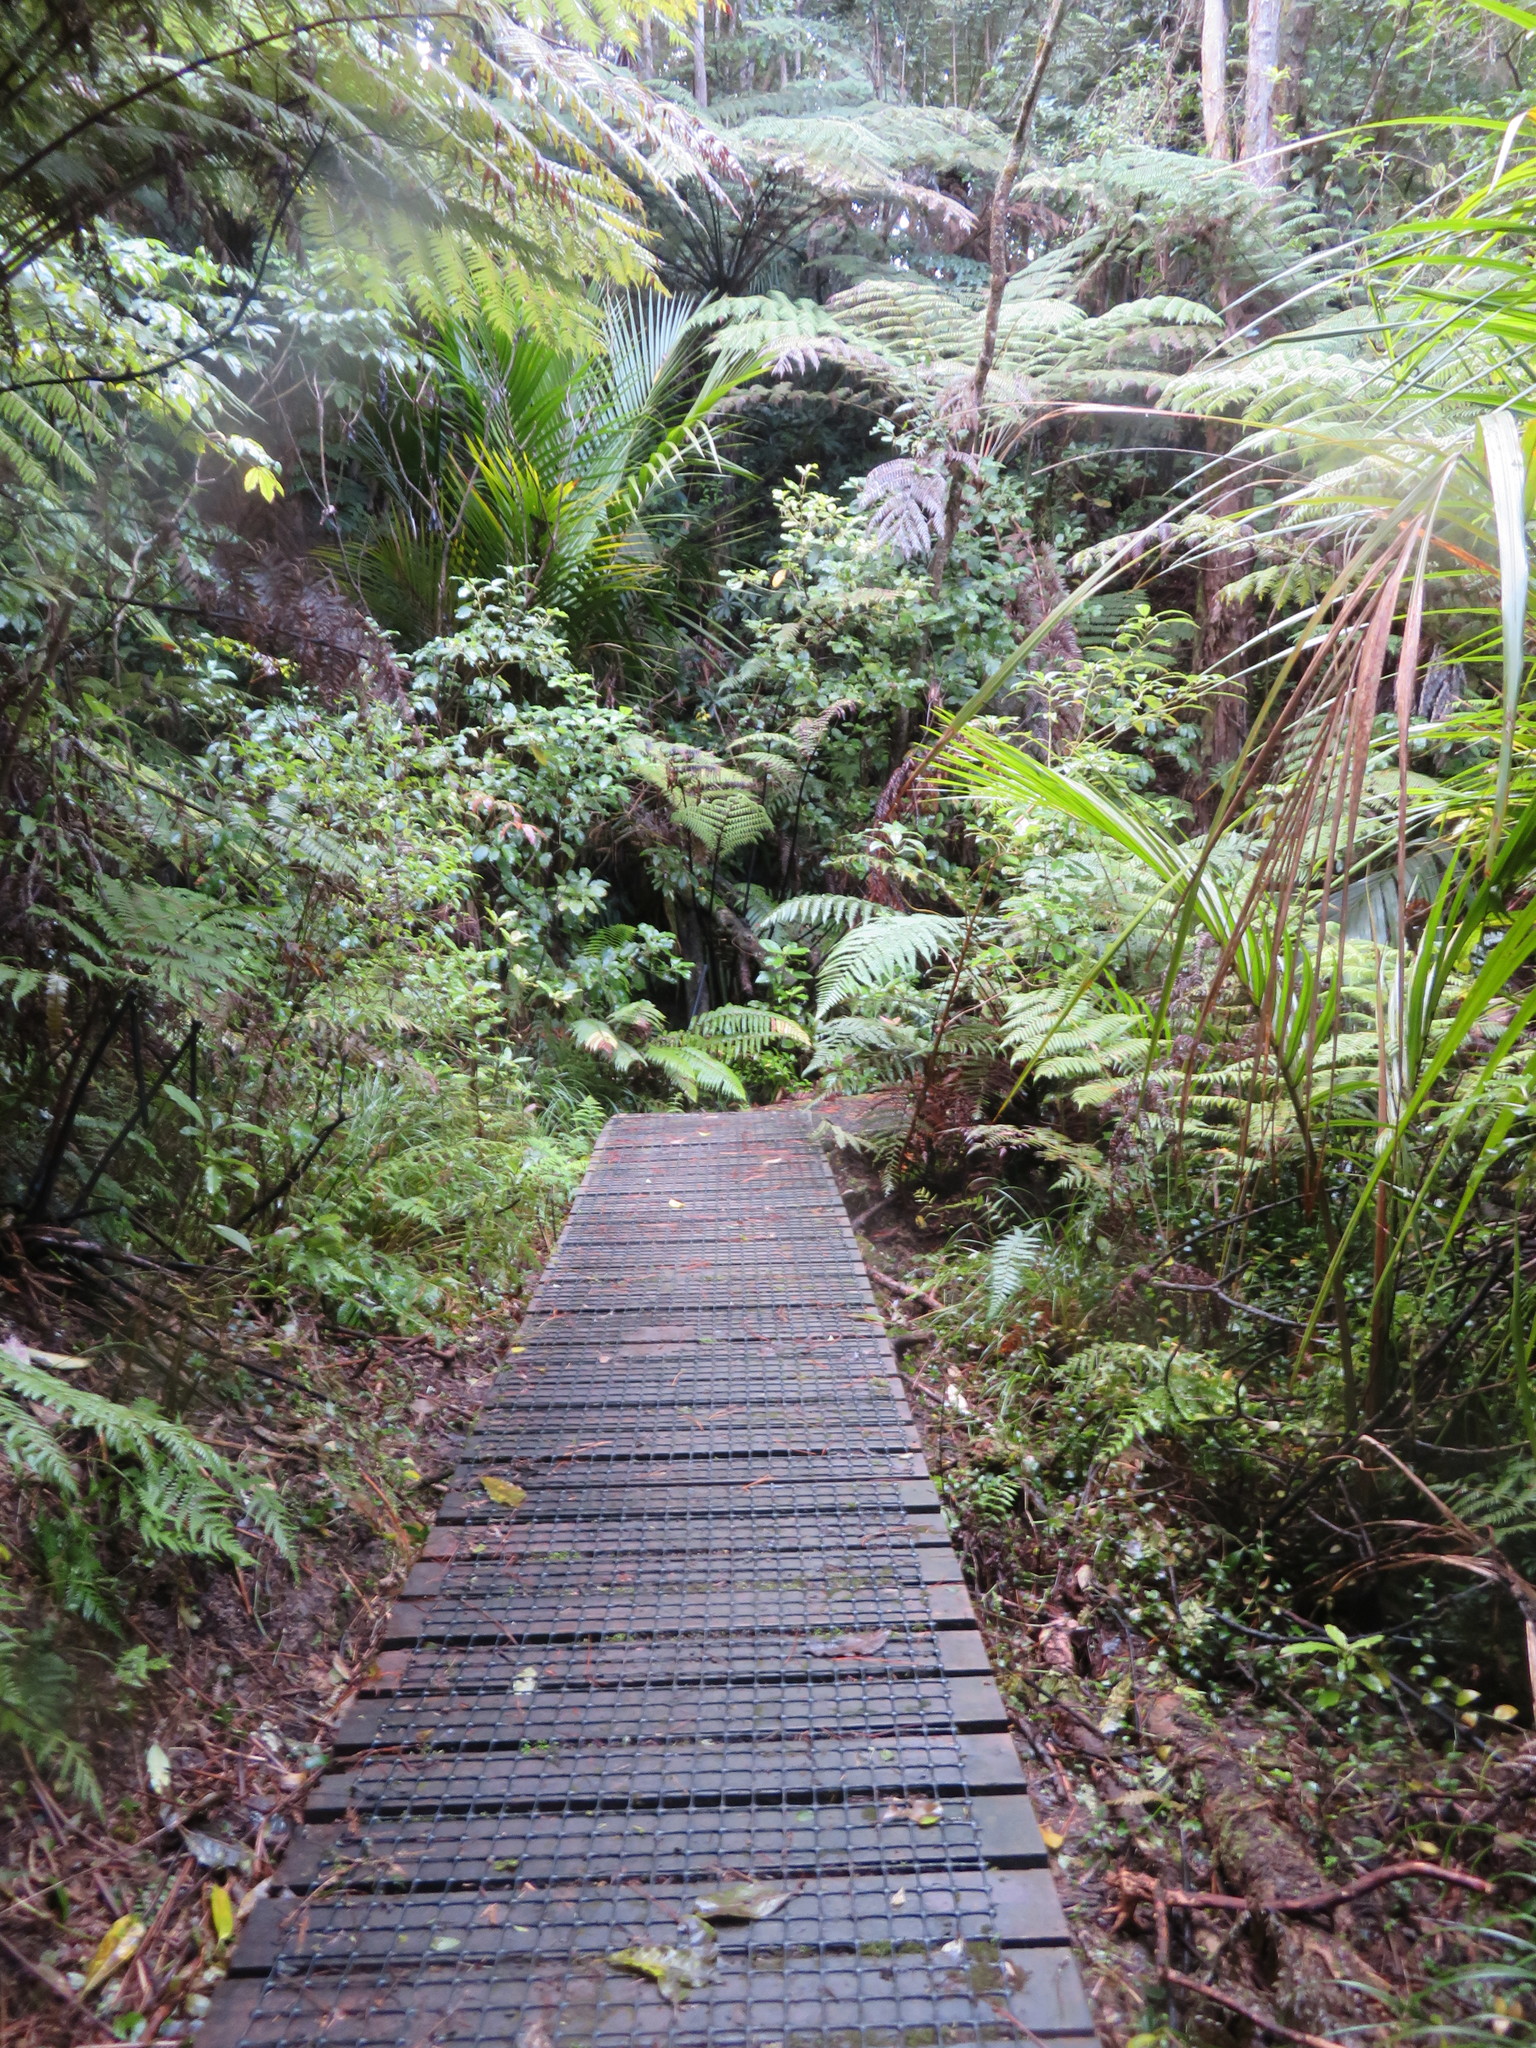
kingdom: Plantae
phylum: Tracheophyta
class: Polypodiopsida
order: Cyatheales
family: Cyatheaceae
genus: Sphaeropteris
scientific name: Sphaeropteris medullaris
